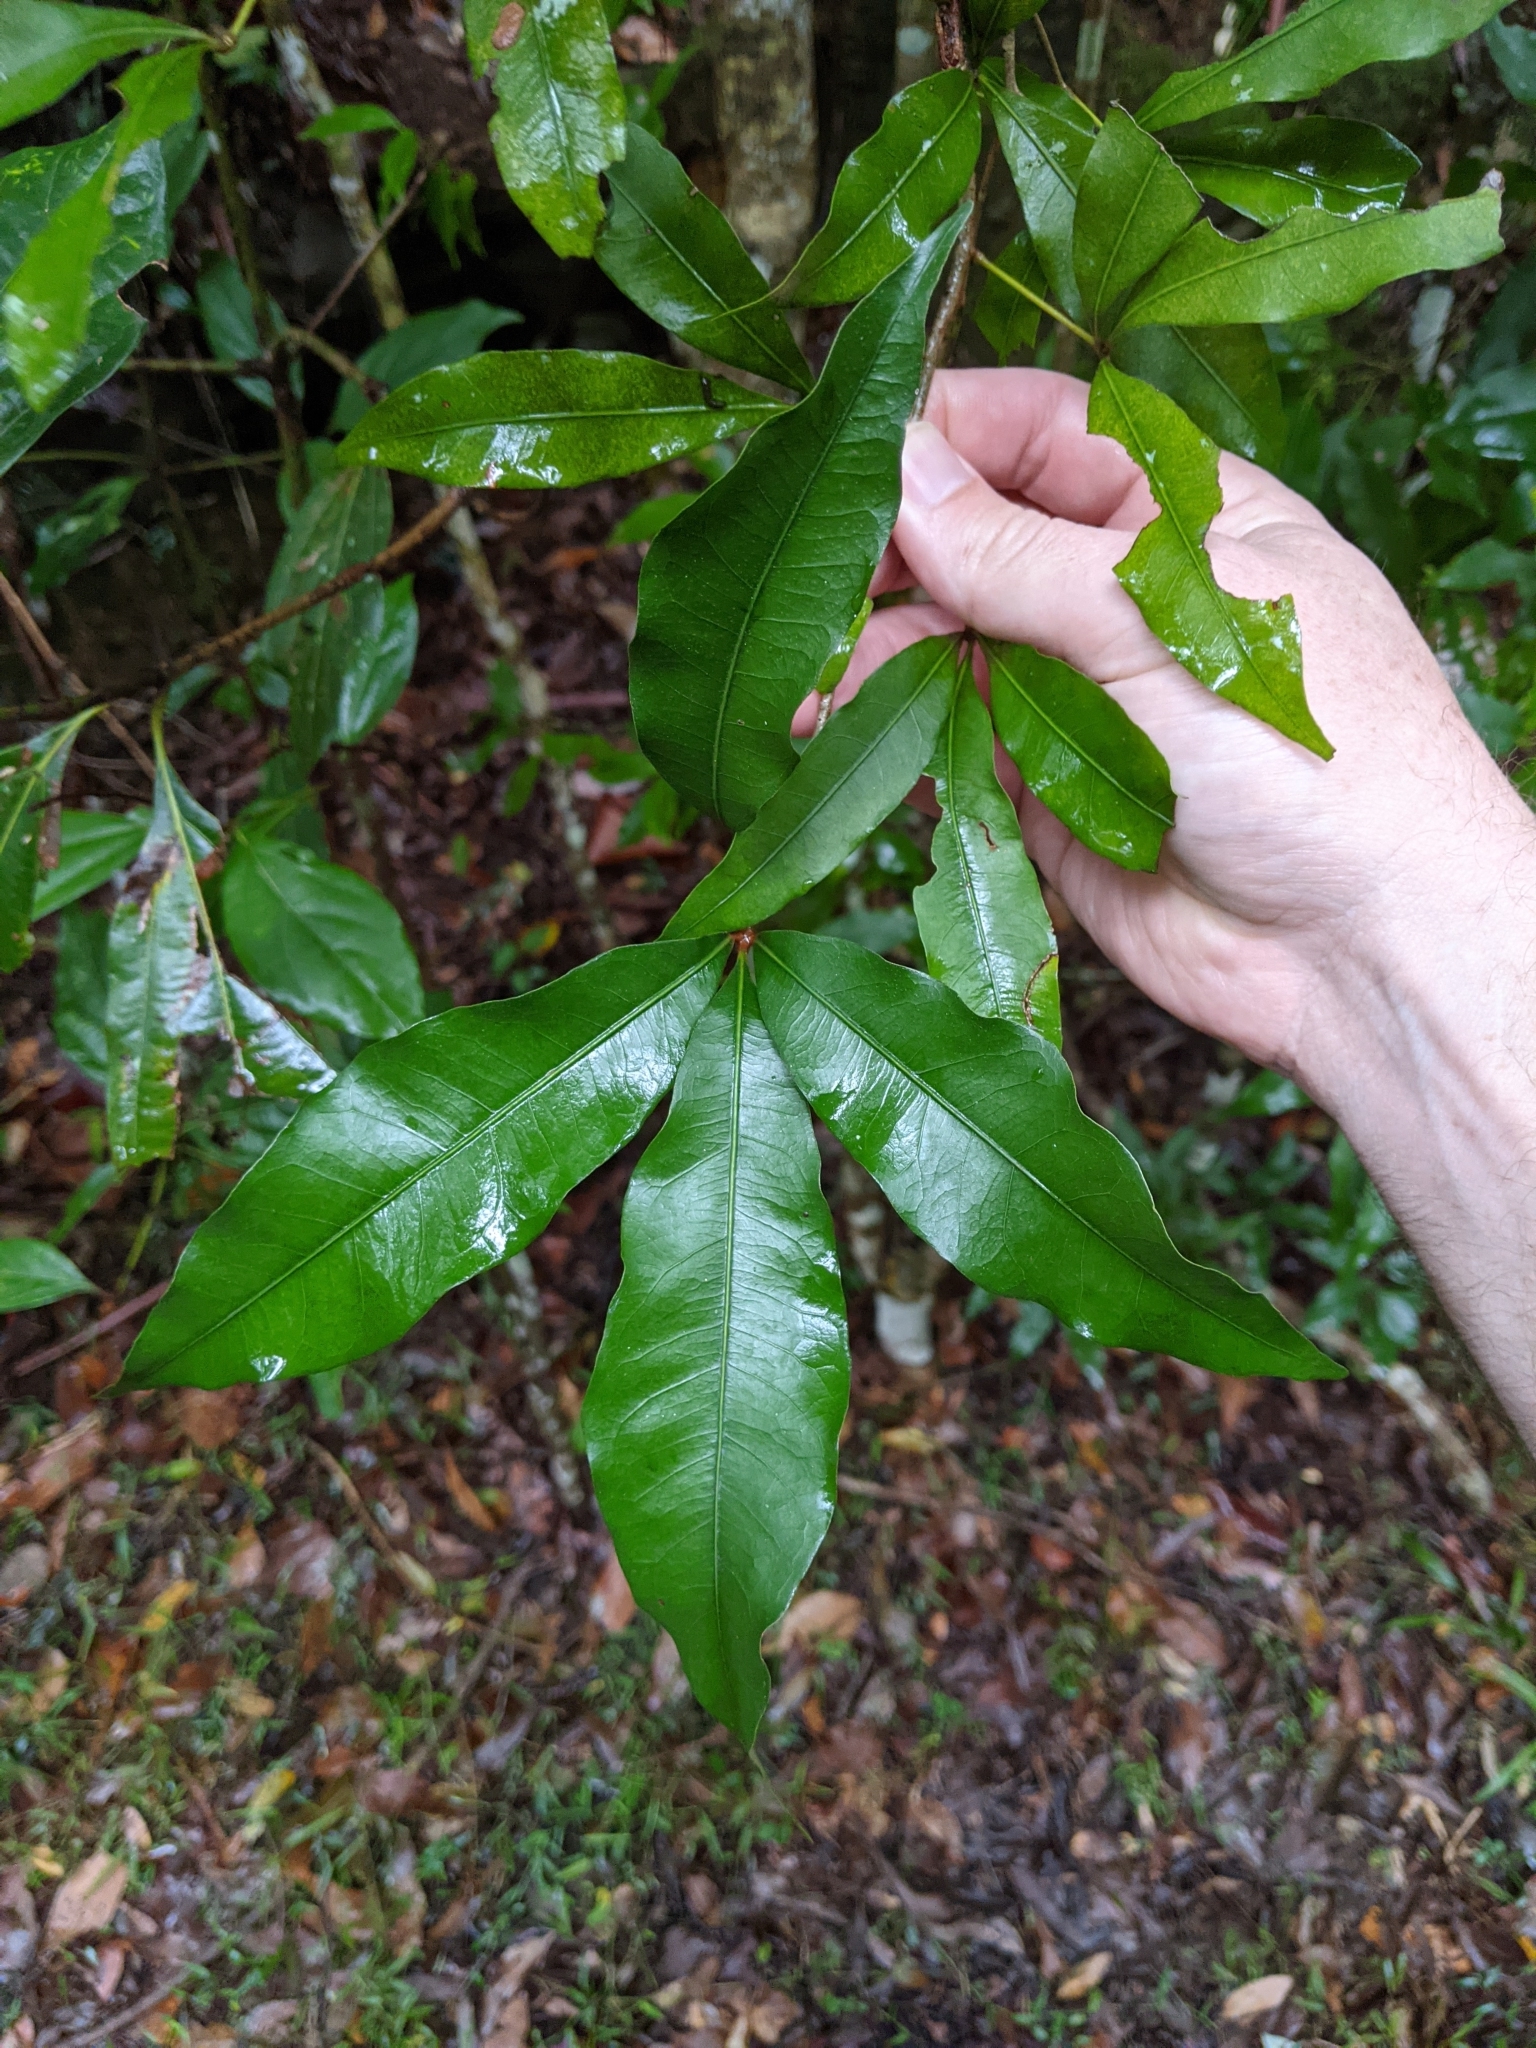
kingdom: Plantae
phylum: Tracheophyta
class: Magnoliopsida
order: Malvales
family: Malvaceae
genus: Argyrodendron
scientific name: Argyrodendron trifoliolatum
